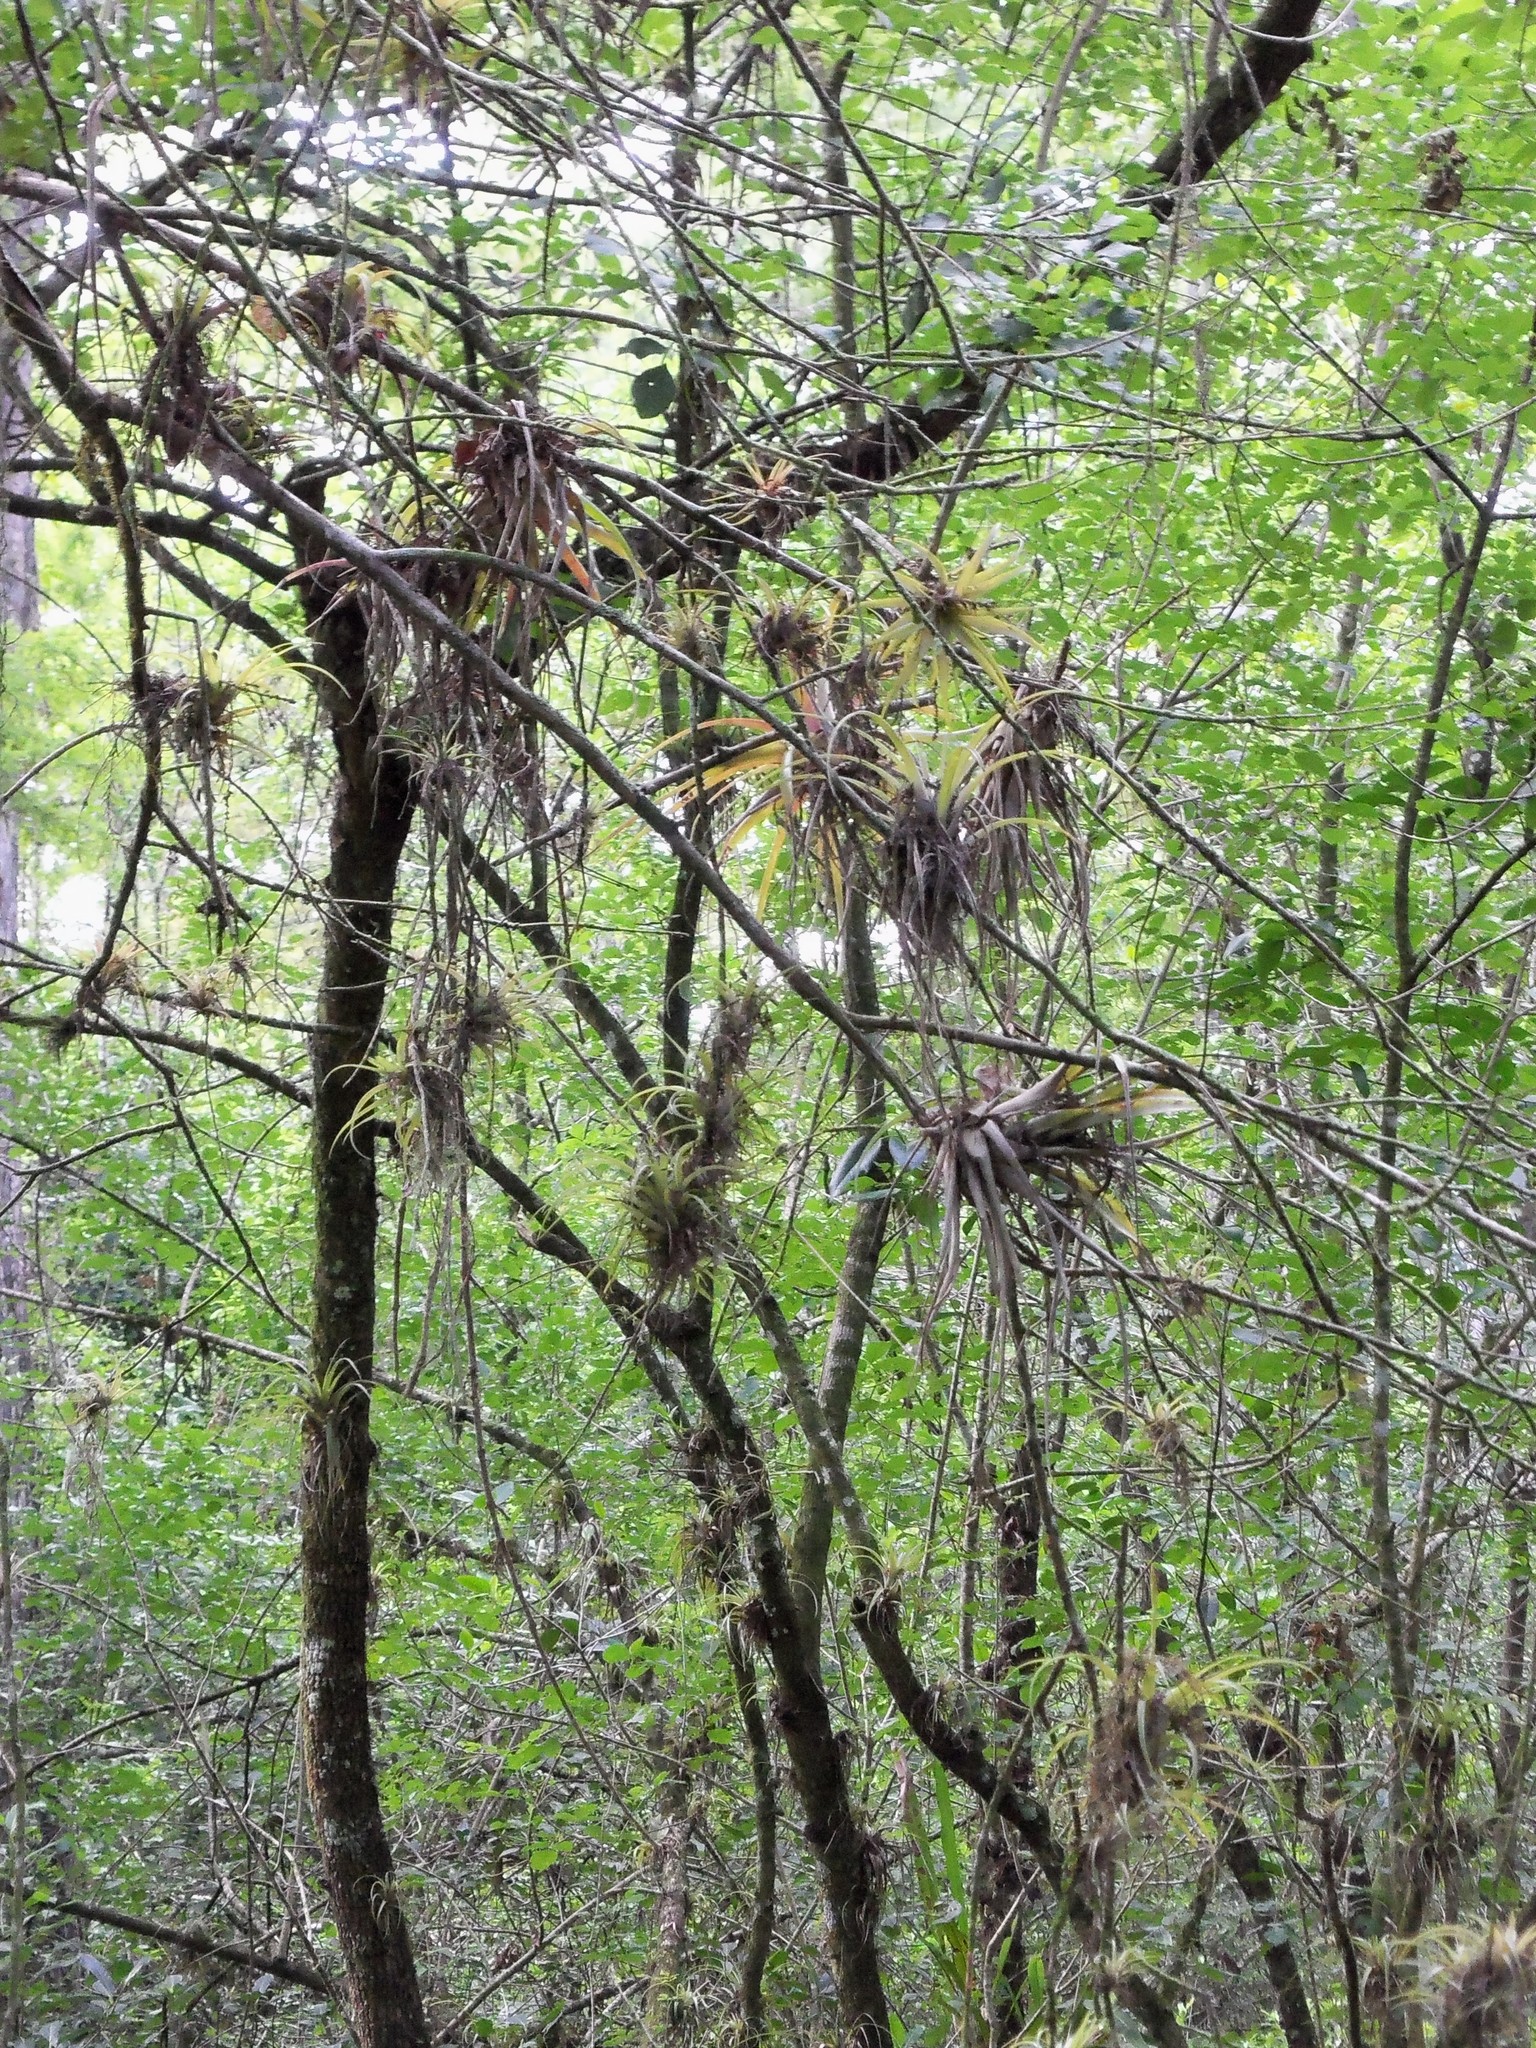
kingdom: Plantae
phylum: Tracheophyta
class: Liliopsida
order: Poales
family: Bromeliaceae
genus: Tillandsia
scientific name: Tillandsia variabilis
